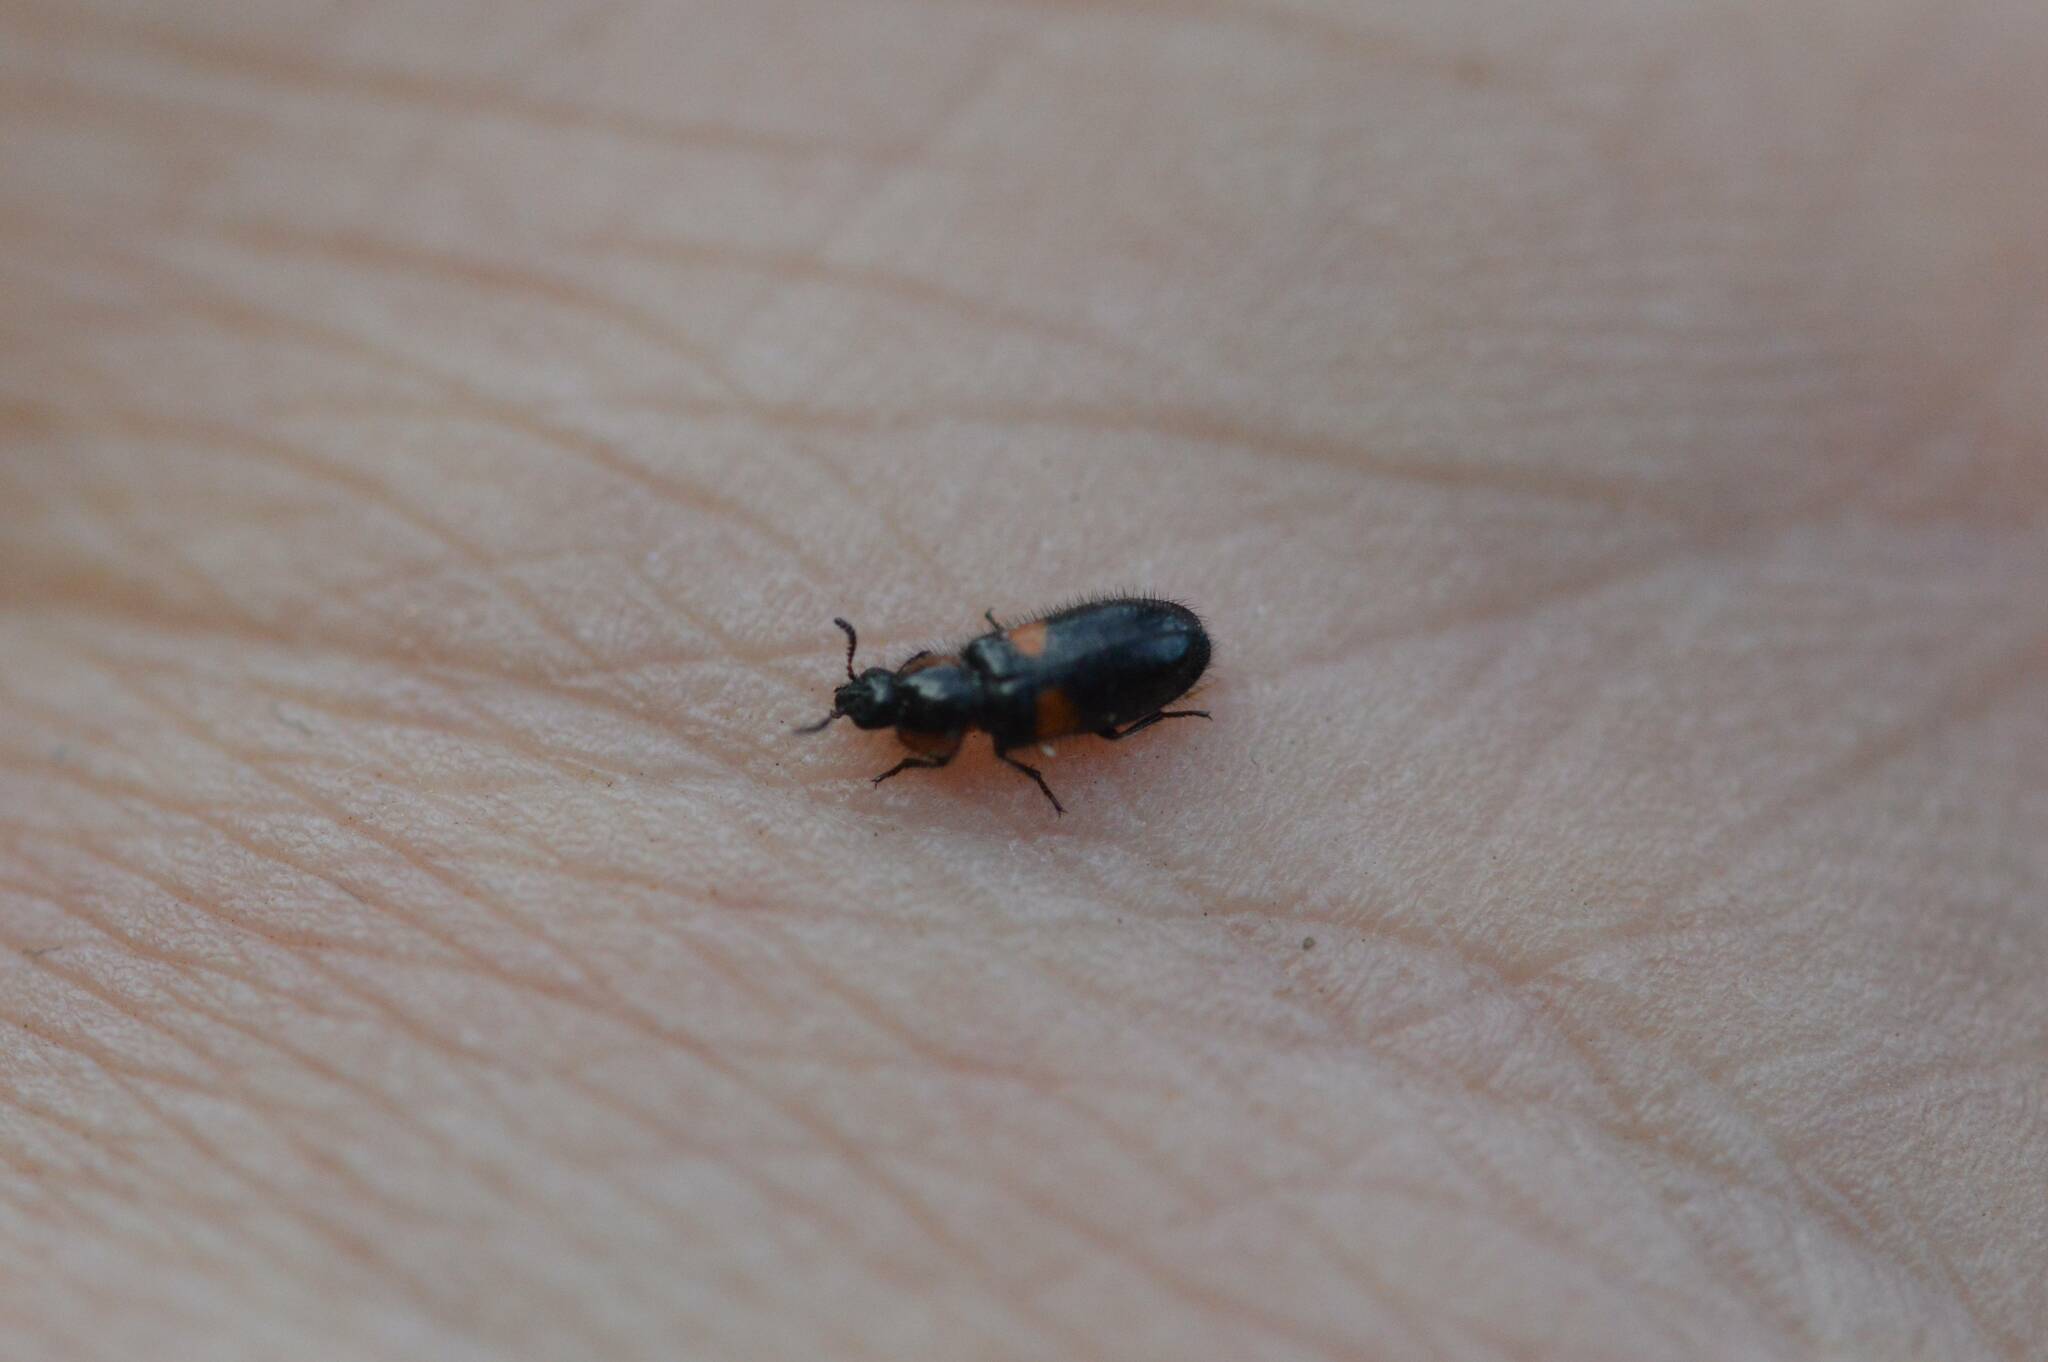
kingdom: Animalia
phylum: Arthropoda
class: Insecta
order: Coleoptera
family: Melyridae
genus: Divales
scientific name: Divales bipustulatus
